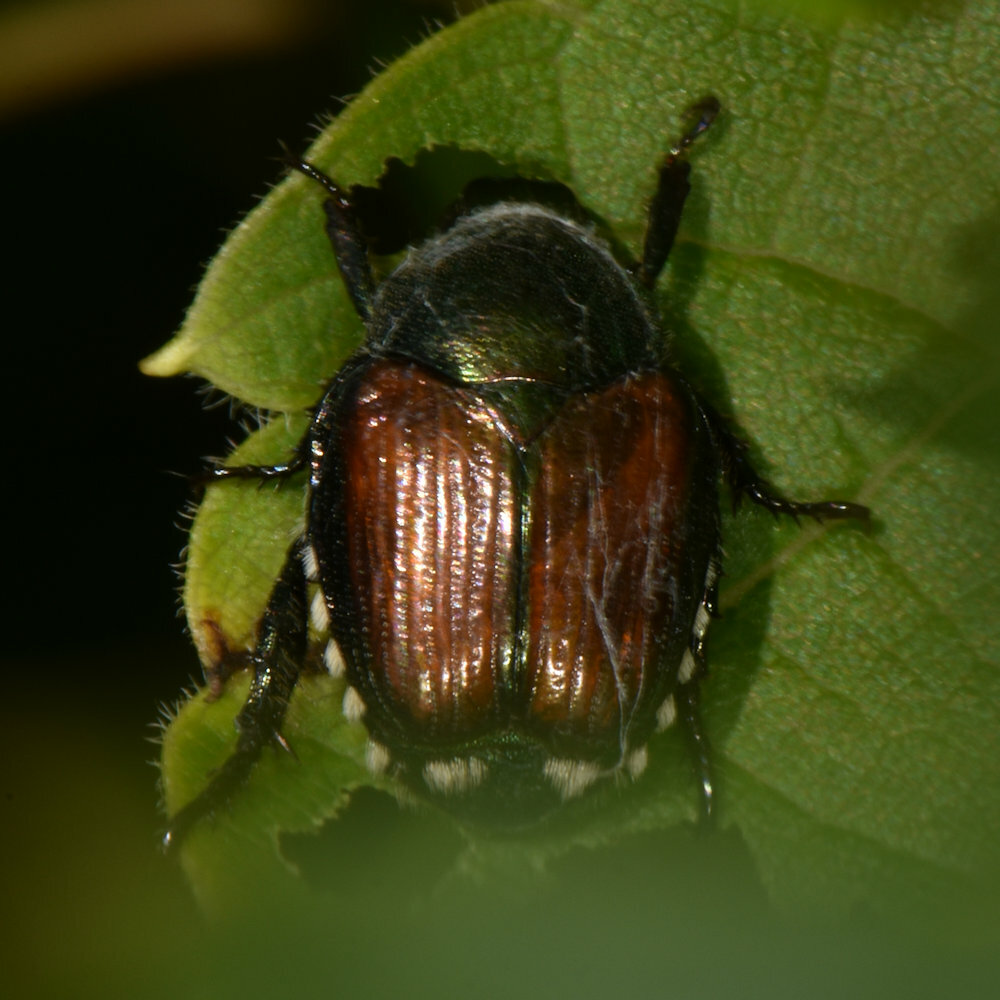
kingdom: Animalia
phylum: Arthropoda
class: Insecta
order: Coleoptera
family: Scarabaeidae
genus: Popillia
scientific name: Popillia japonica
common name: Japanese beetle
